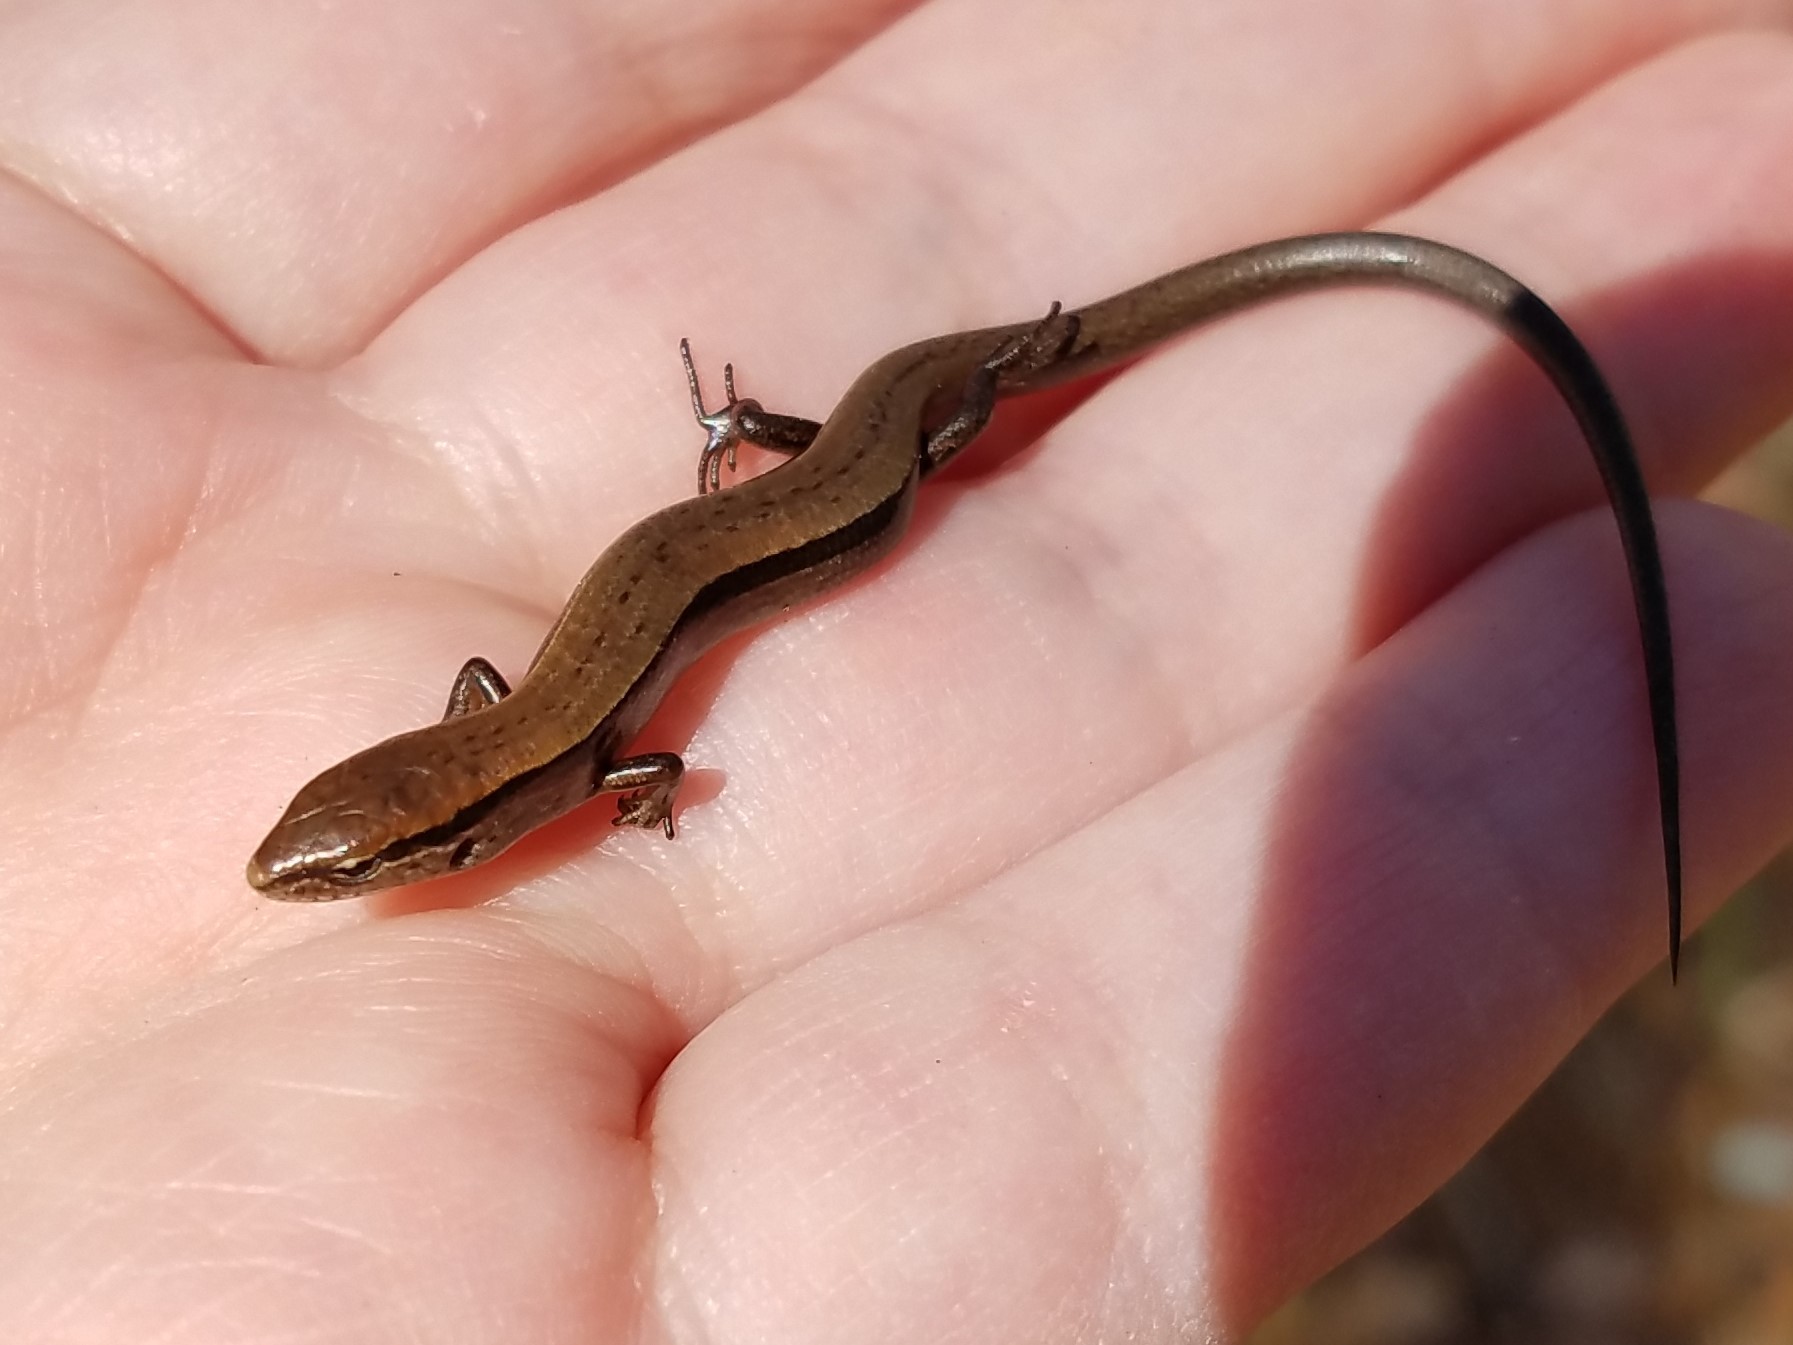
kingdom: Animalia
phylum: Chordata
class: Squamata
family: Scincidae
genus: Scincella
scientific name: Scincella lateralis
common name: Ground skink
